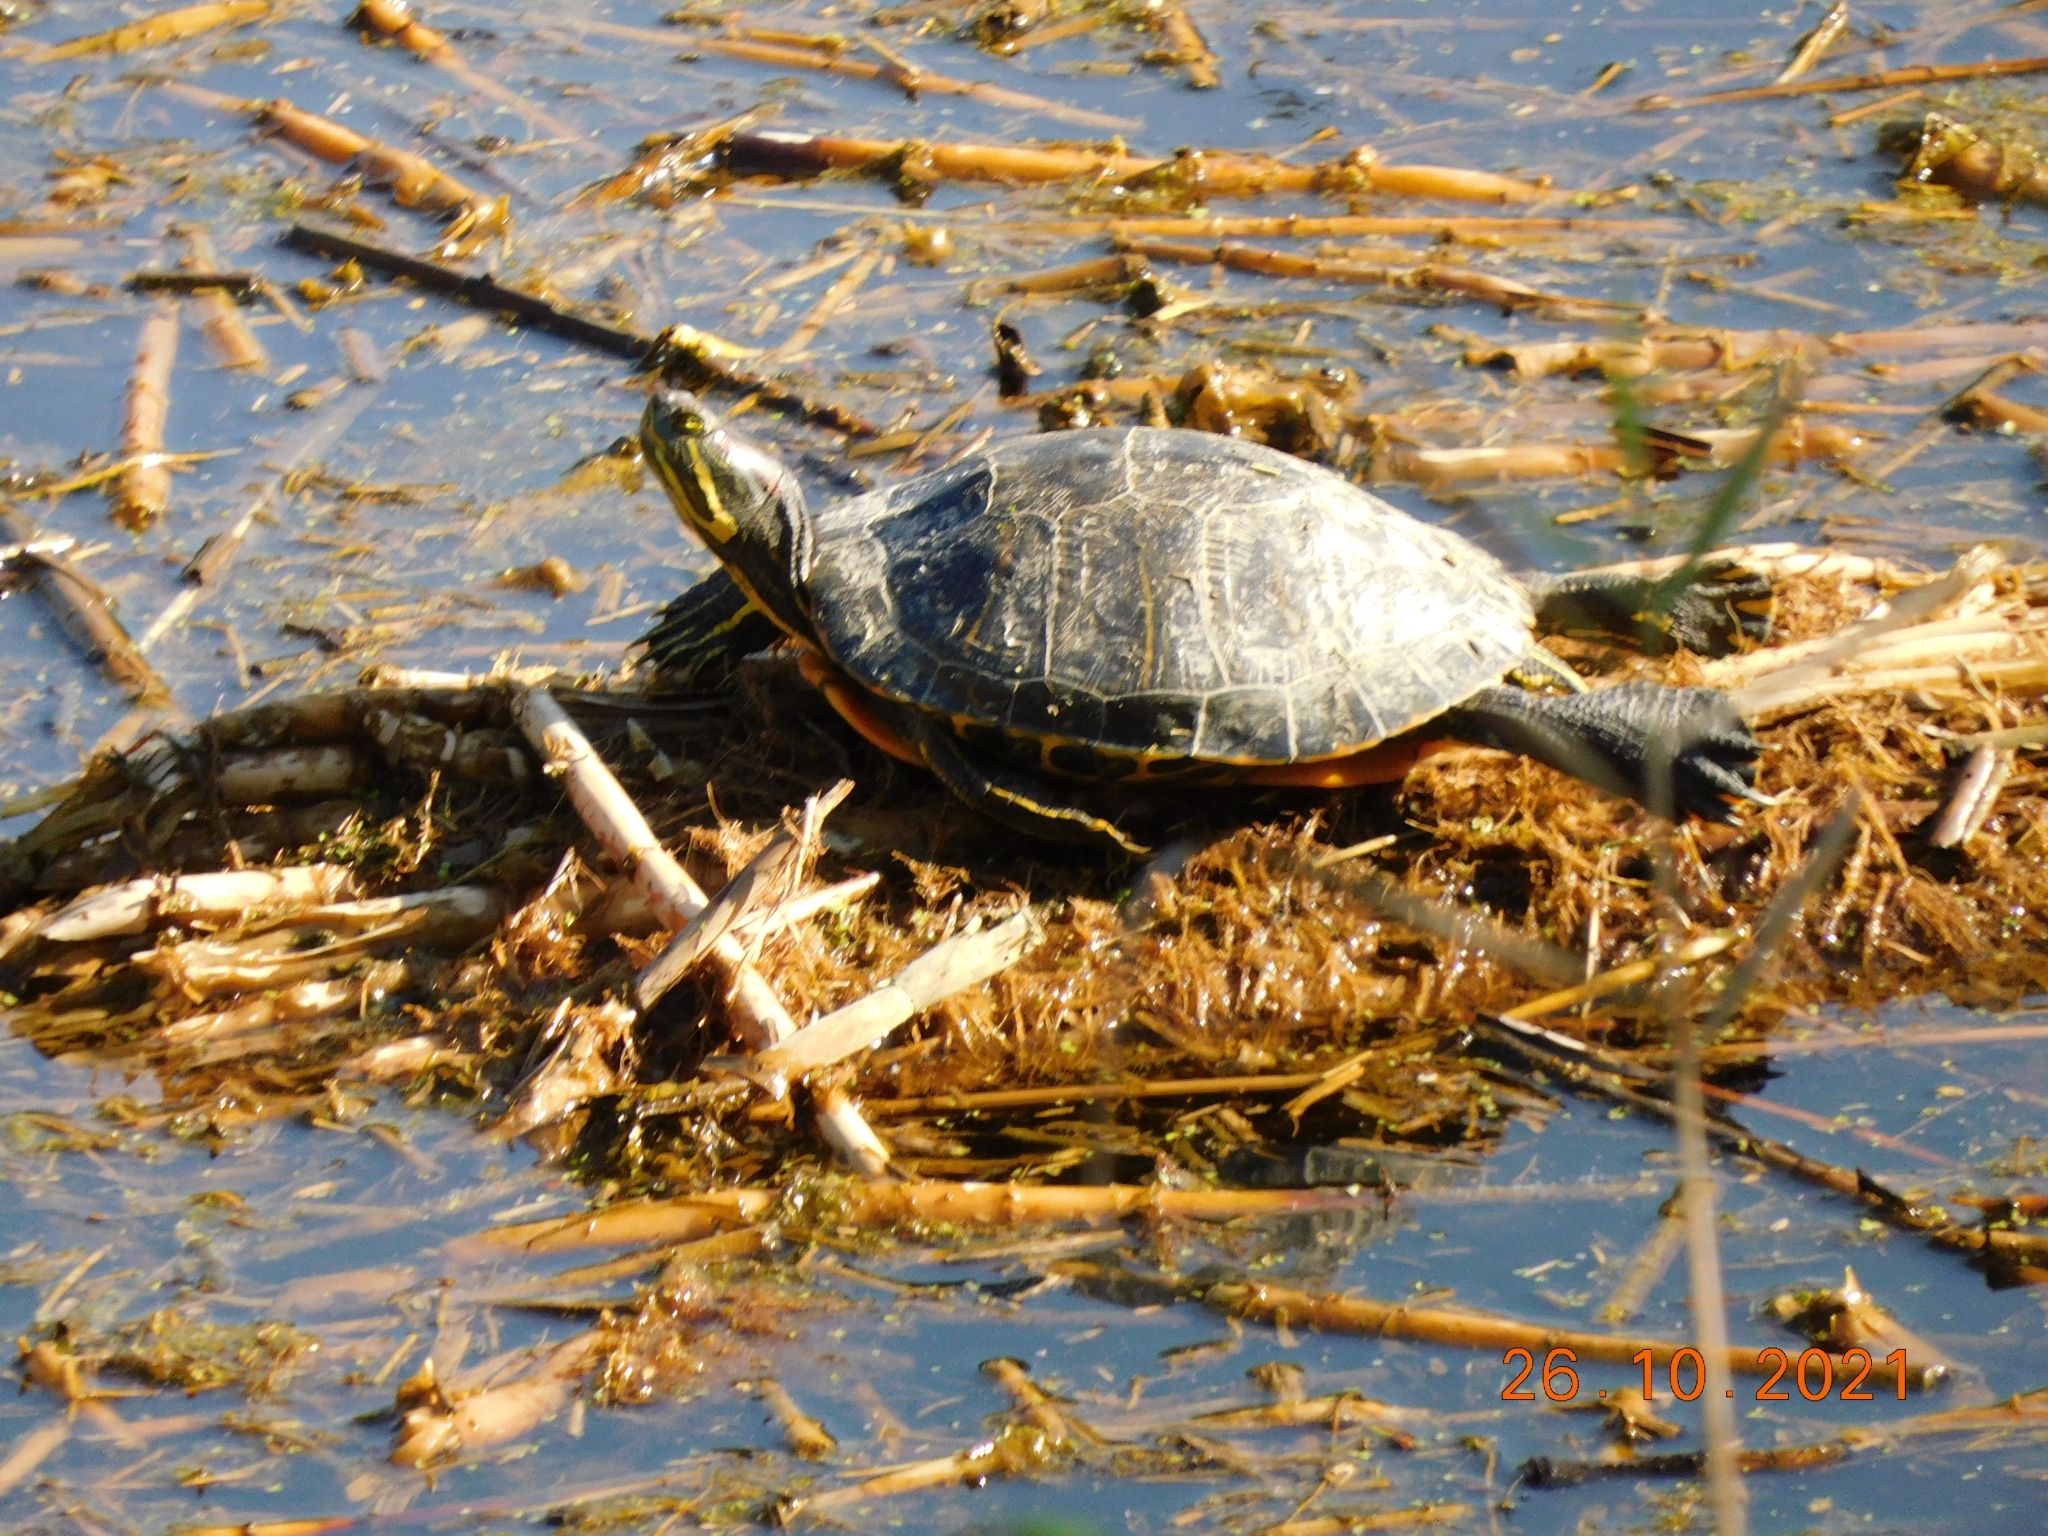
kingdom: Animalia
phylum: Chordata
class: Testudines
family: Emydidae
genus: Trachemys
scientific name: Trachemys scripta
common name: Slider
